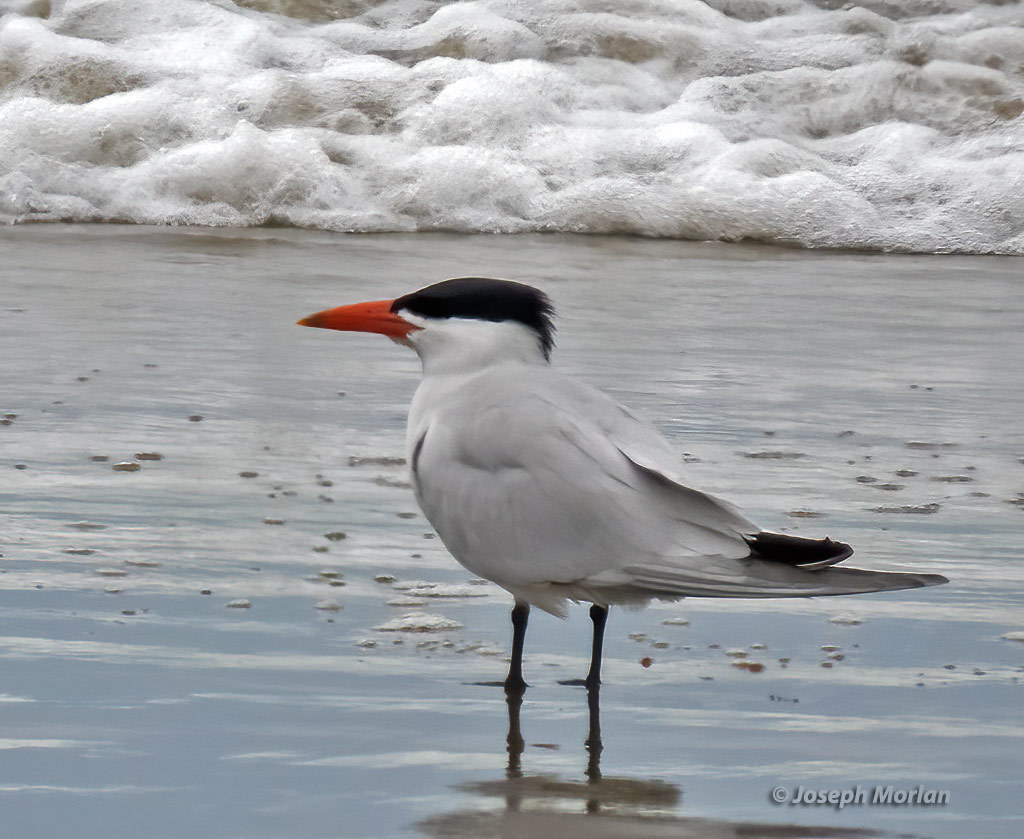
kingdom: Animalia
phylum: Chordata
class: Aves
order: Charadriiformes
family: Laridae
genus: Hydroprogne
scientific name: Hydroprogne caspia
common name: Caspian tern
